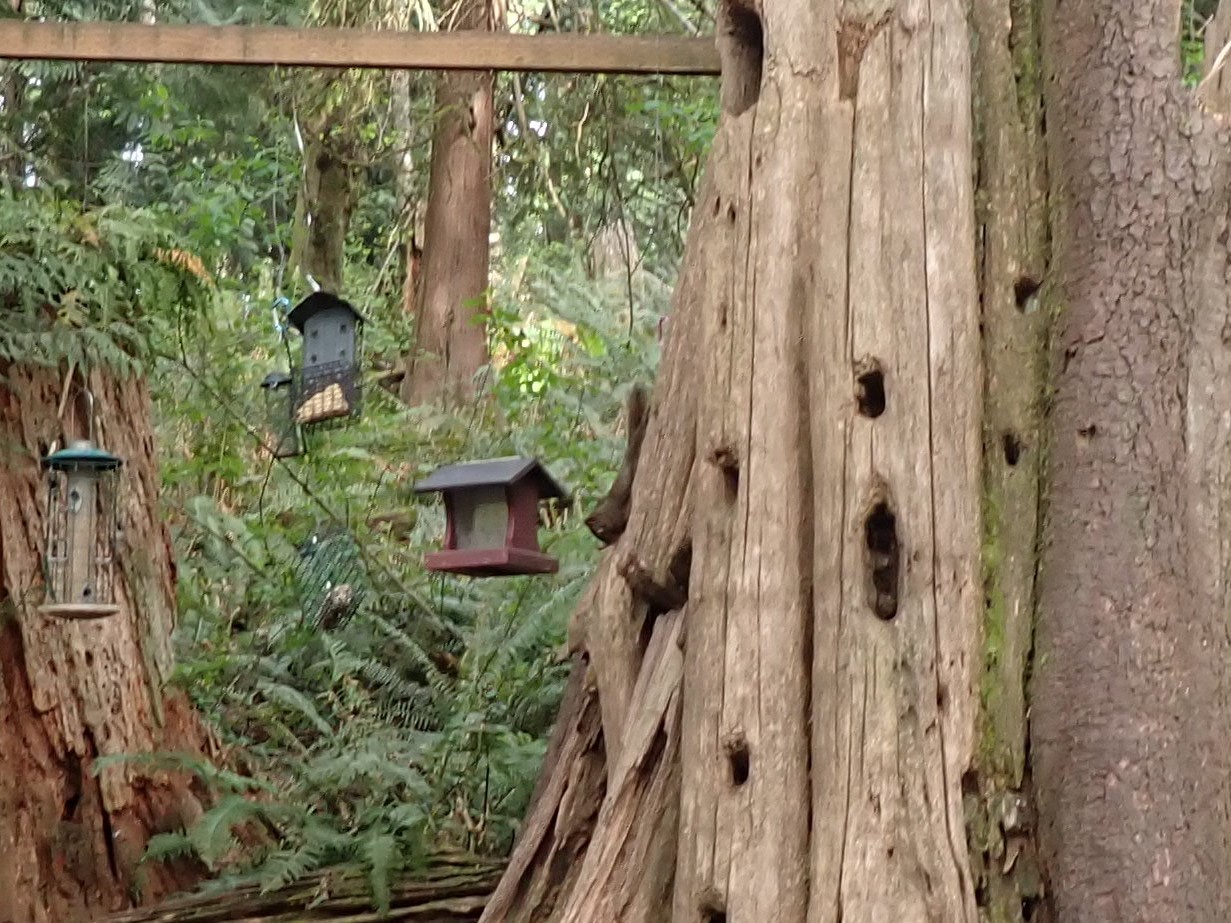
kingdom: Animalia
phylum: Chordata
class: Mammalia
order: Rodentia
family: Sciuridae
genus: Tamiasciurus
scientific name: Tamiasciurus douglasii
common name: Douglas's squirrel
